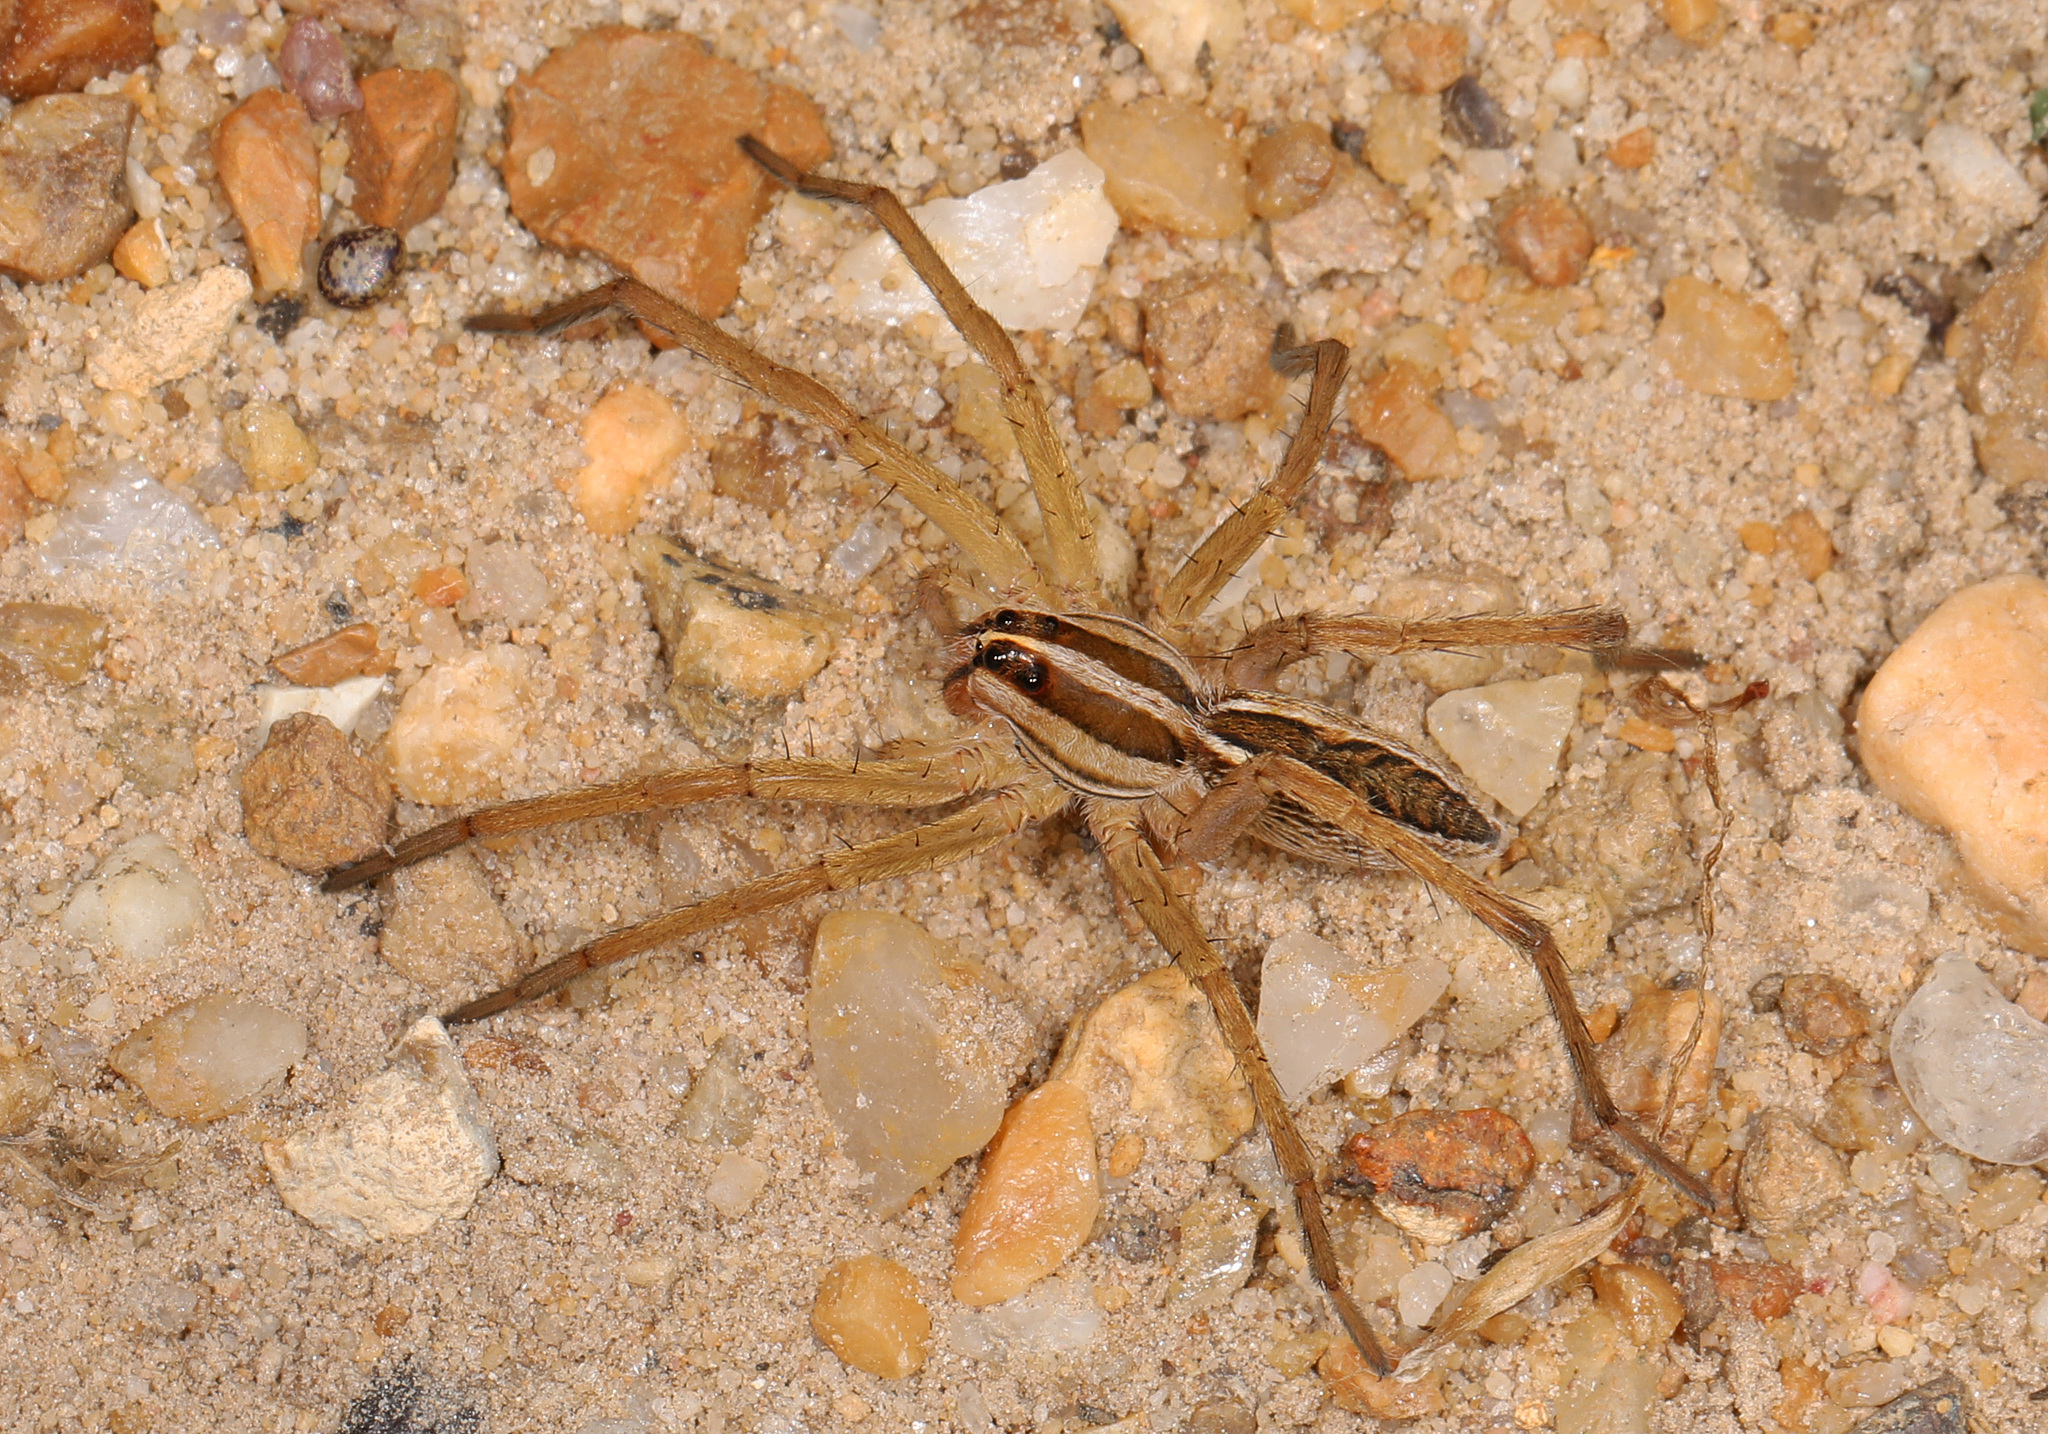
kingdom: Animalia
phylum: Arthropoda
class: Arachnida
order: Araneae
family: Lycosidae
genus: Rabidosa
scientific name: Rabidosa rabida
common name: Rabid wolf spider
